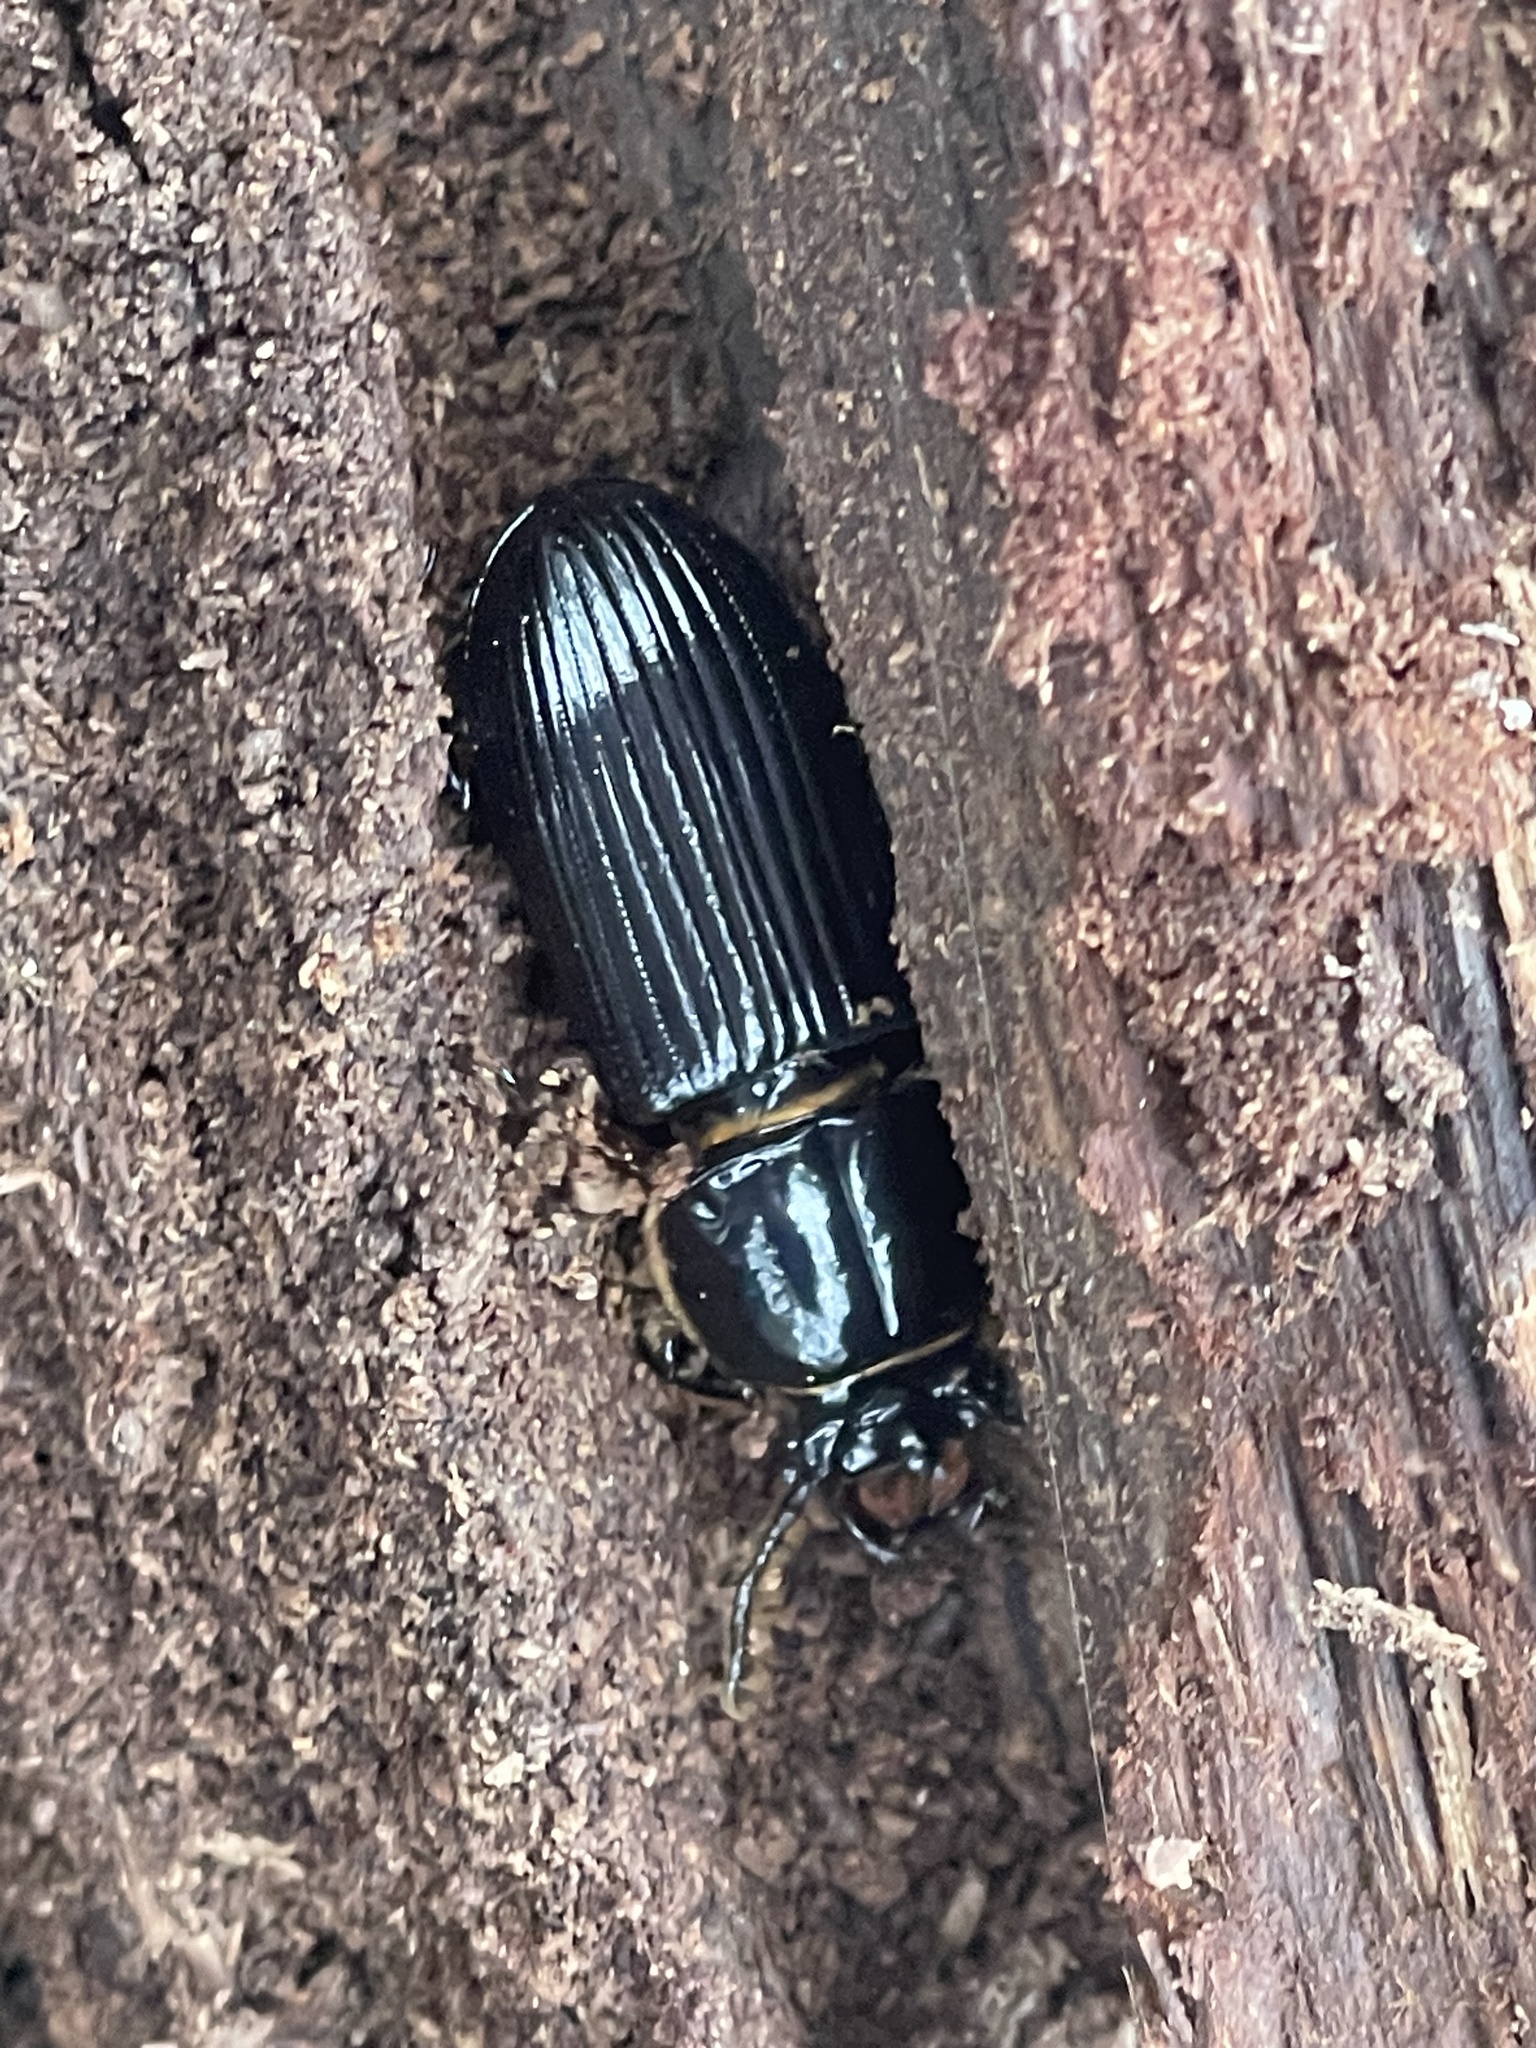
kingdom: Animalia
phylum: Arthropoda
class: Insecta
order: Coleoptera
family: Passalidae
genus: Odontotaenius
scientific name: Odontotaenius disjunctus
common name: Patent leather beetle
